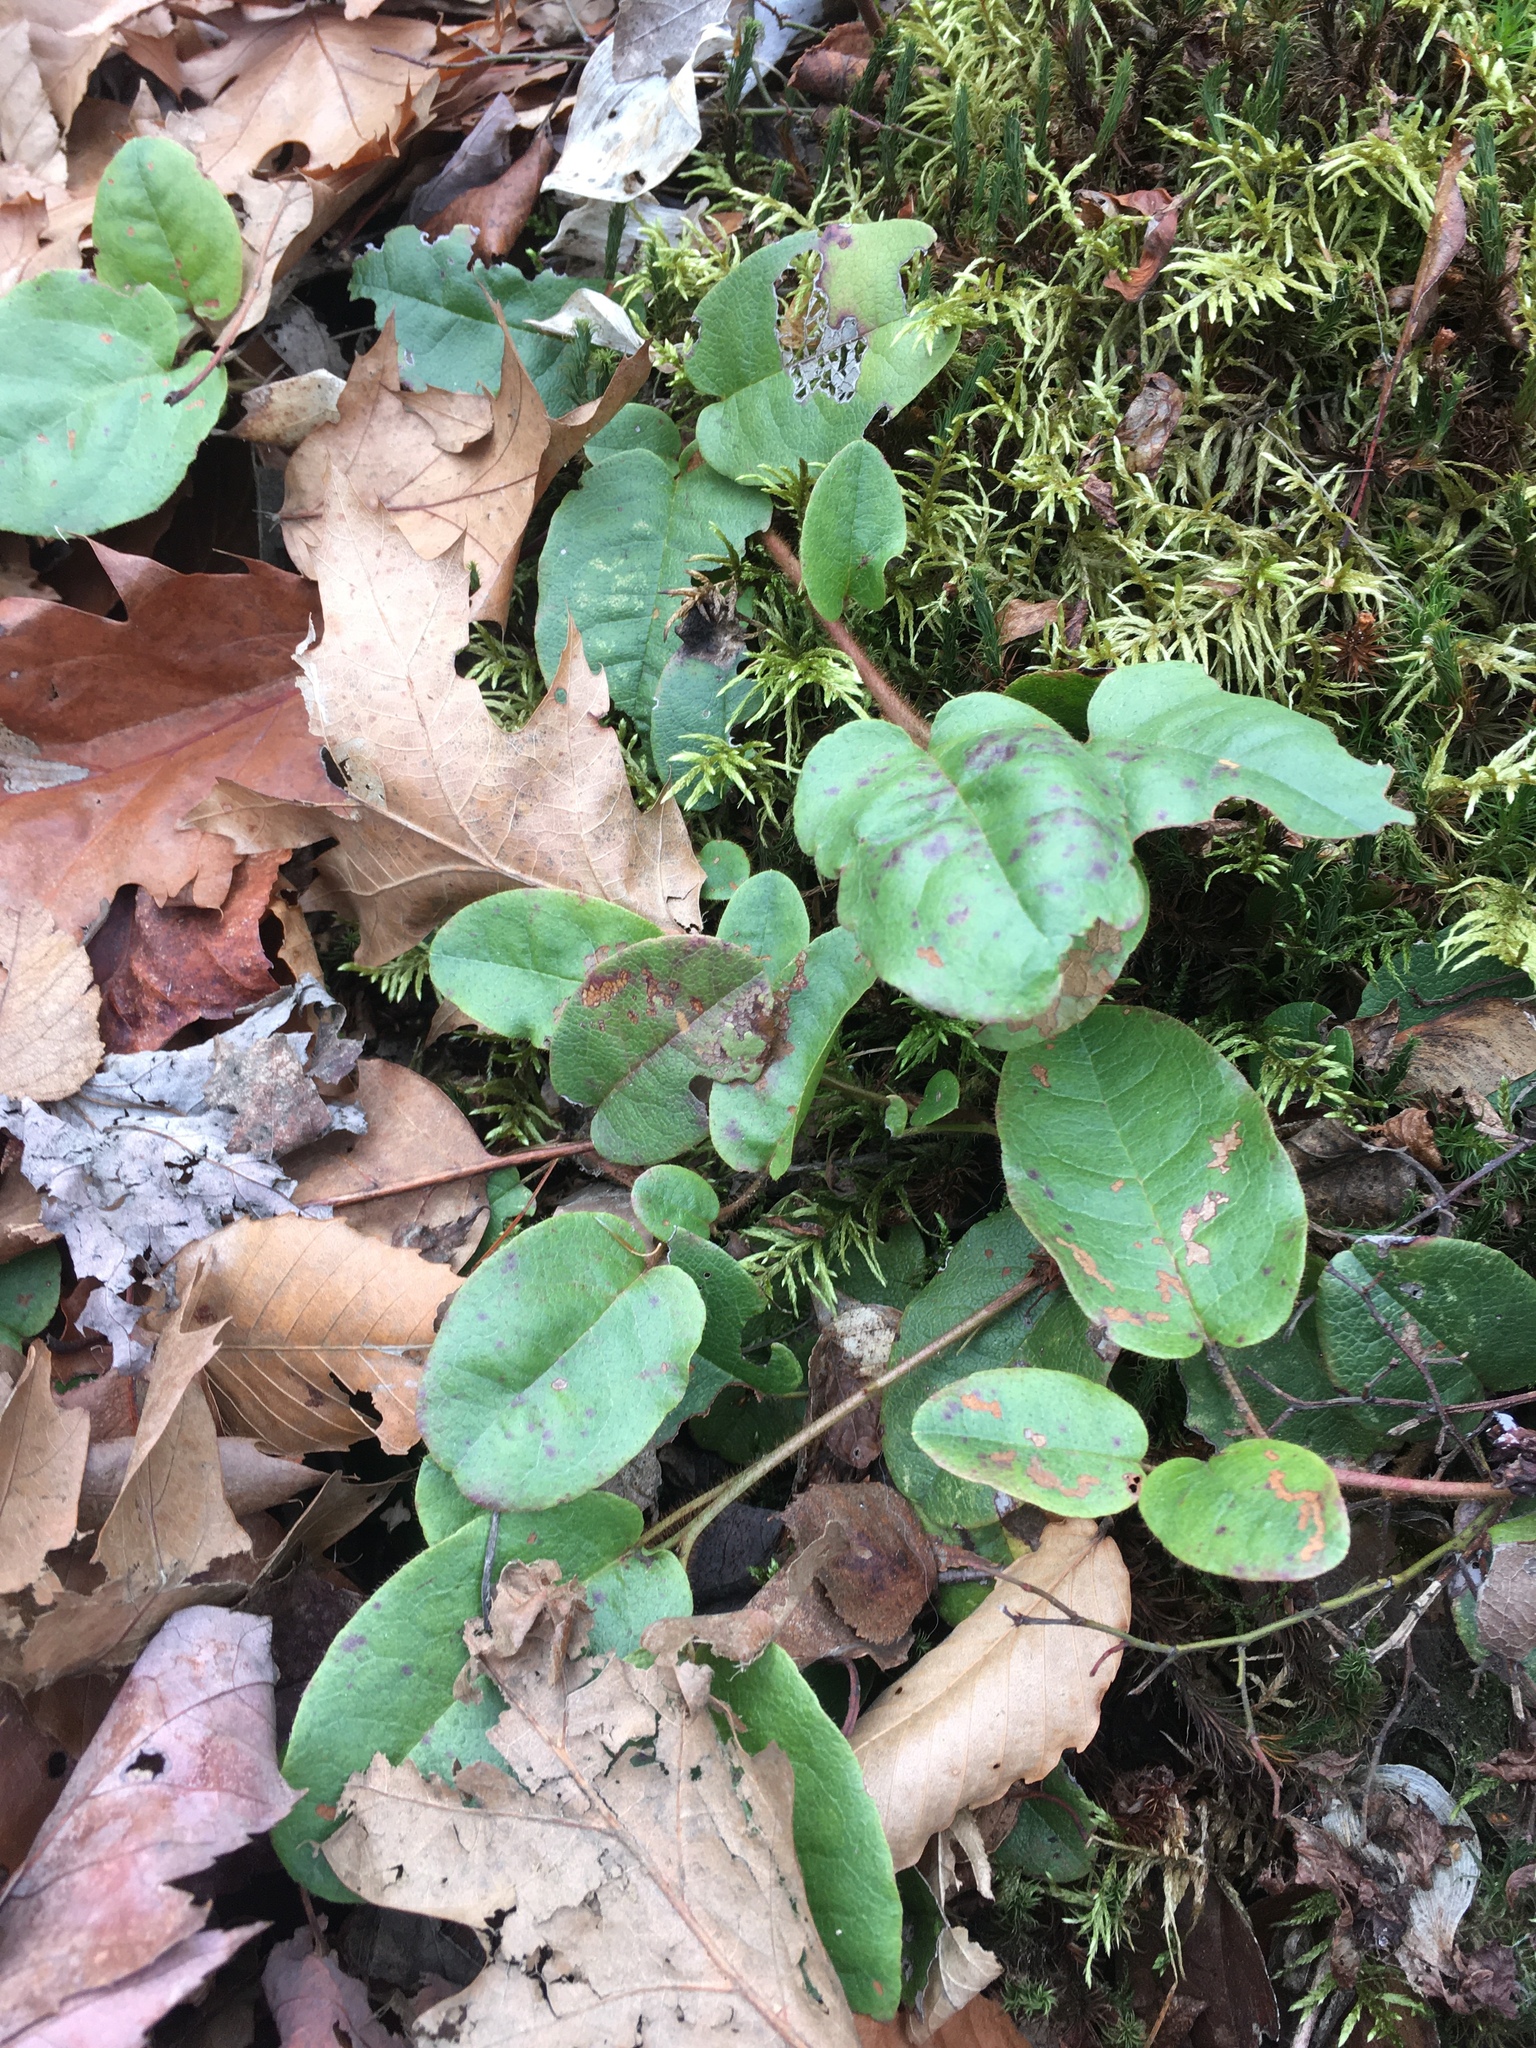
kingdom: Plantae
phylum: Tracheophyta
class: Magnoliopsida
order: Ericales
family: Ericaceae
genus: Epigaea
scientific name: Epigaea repens
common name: Gravelroot
